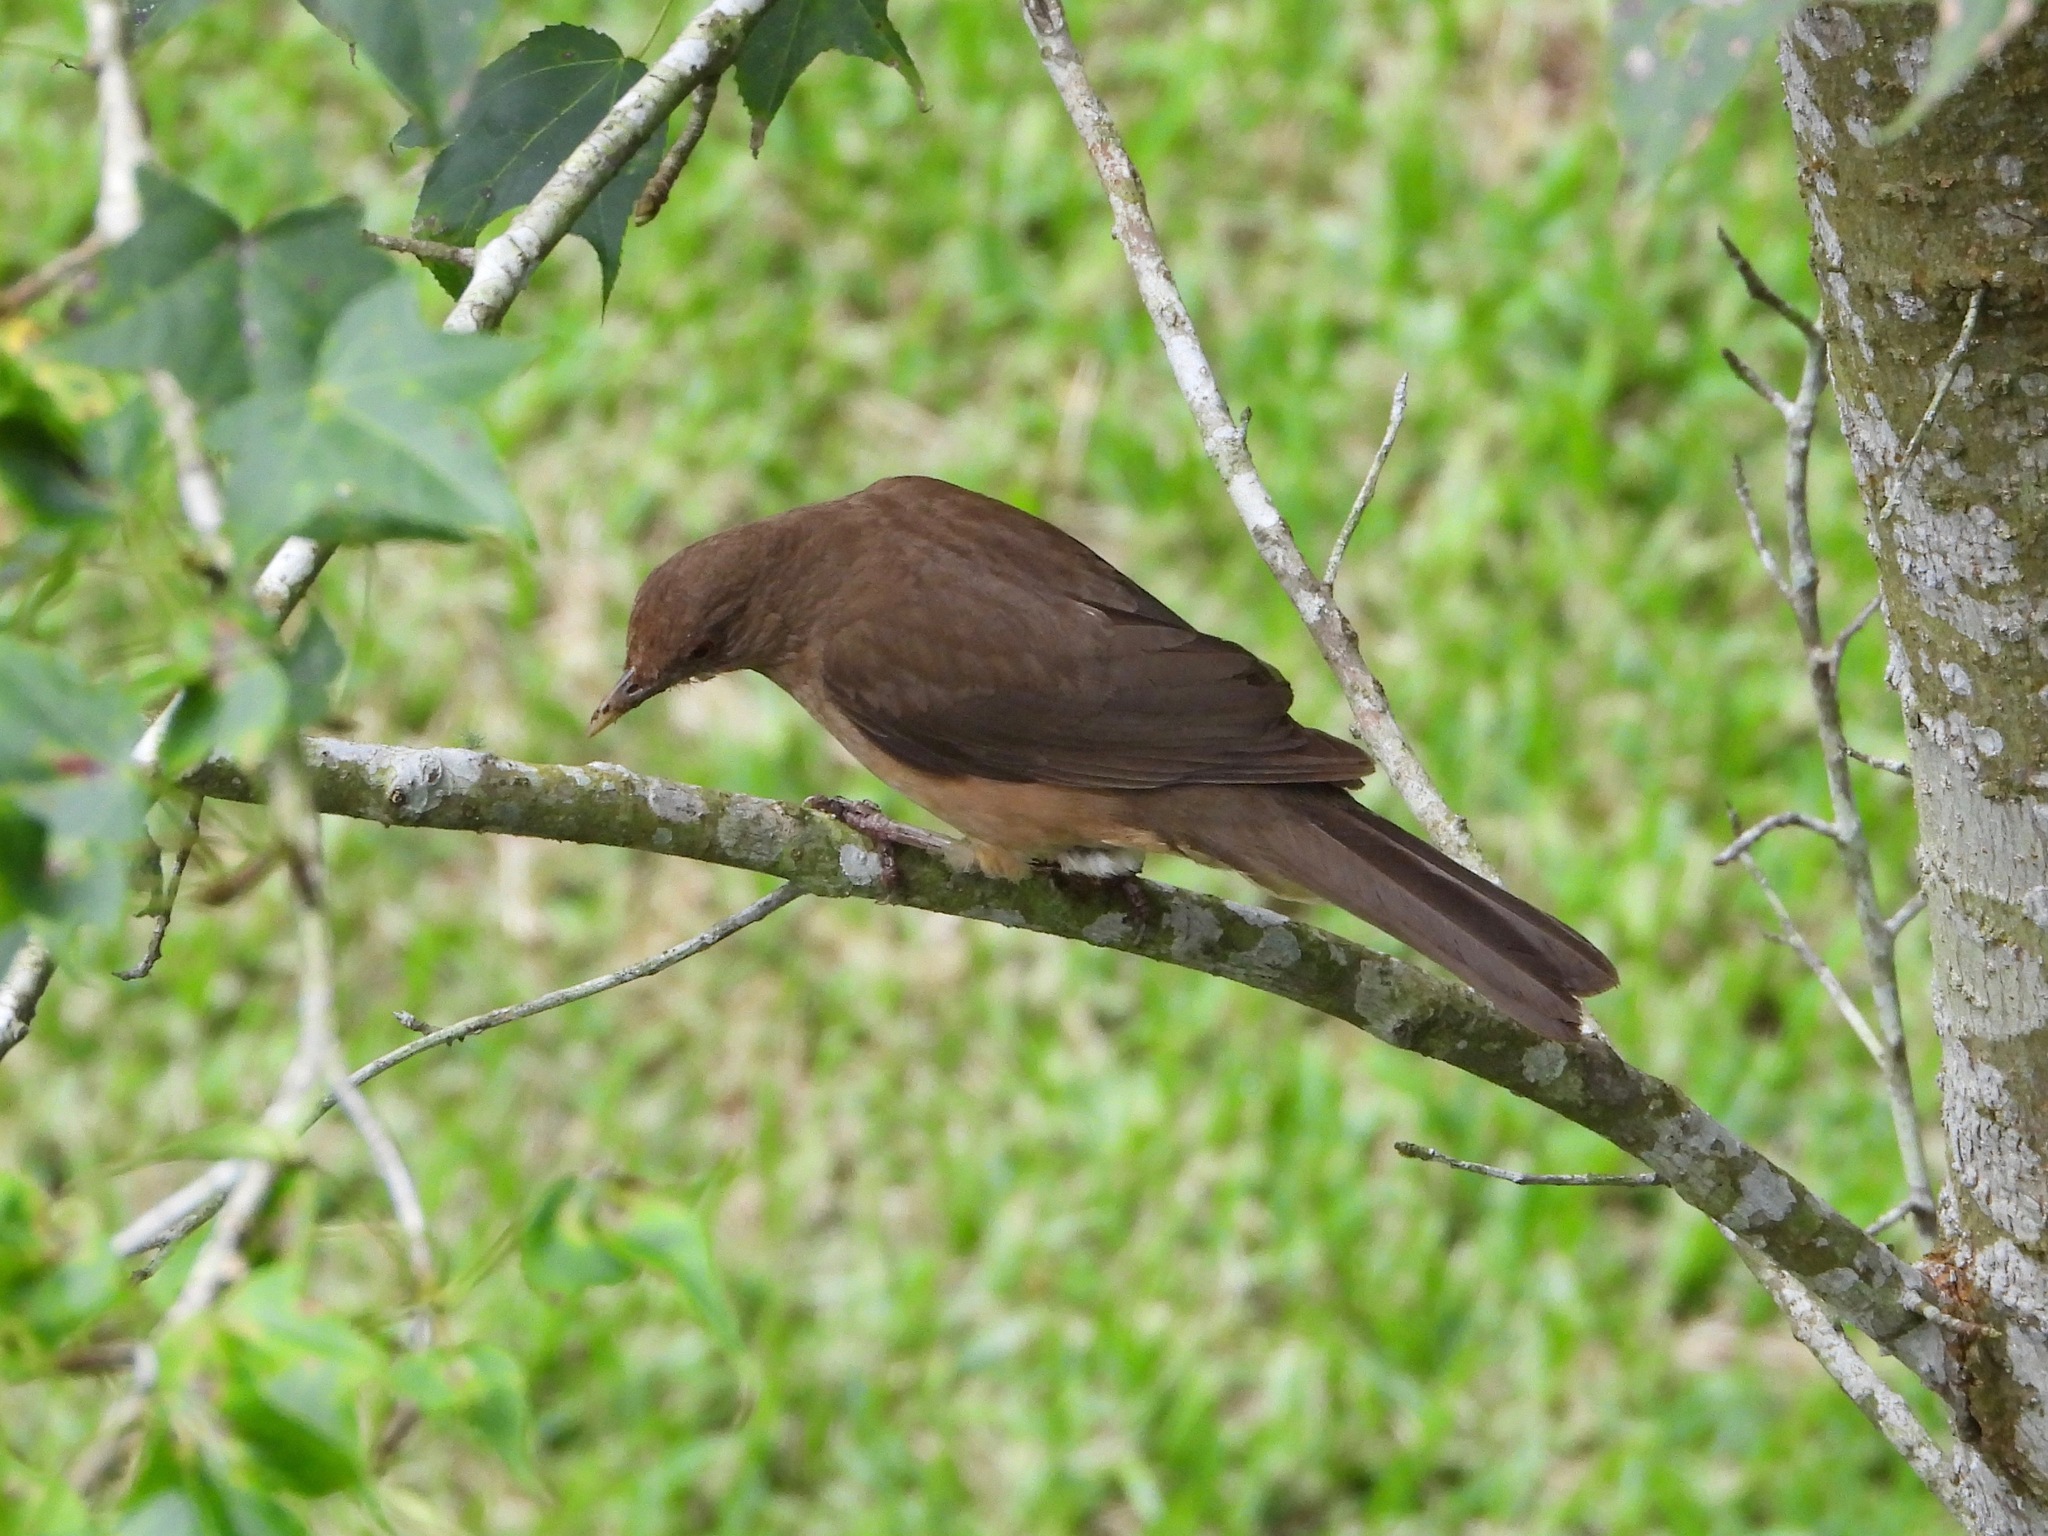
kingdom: Animalia
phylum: Chordata
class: Aves
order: Passeriformes
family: Turdidae
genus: Turdus
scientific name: Turdus grayi
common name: Clay-colored thrush
